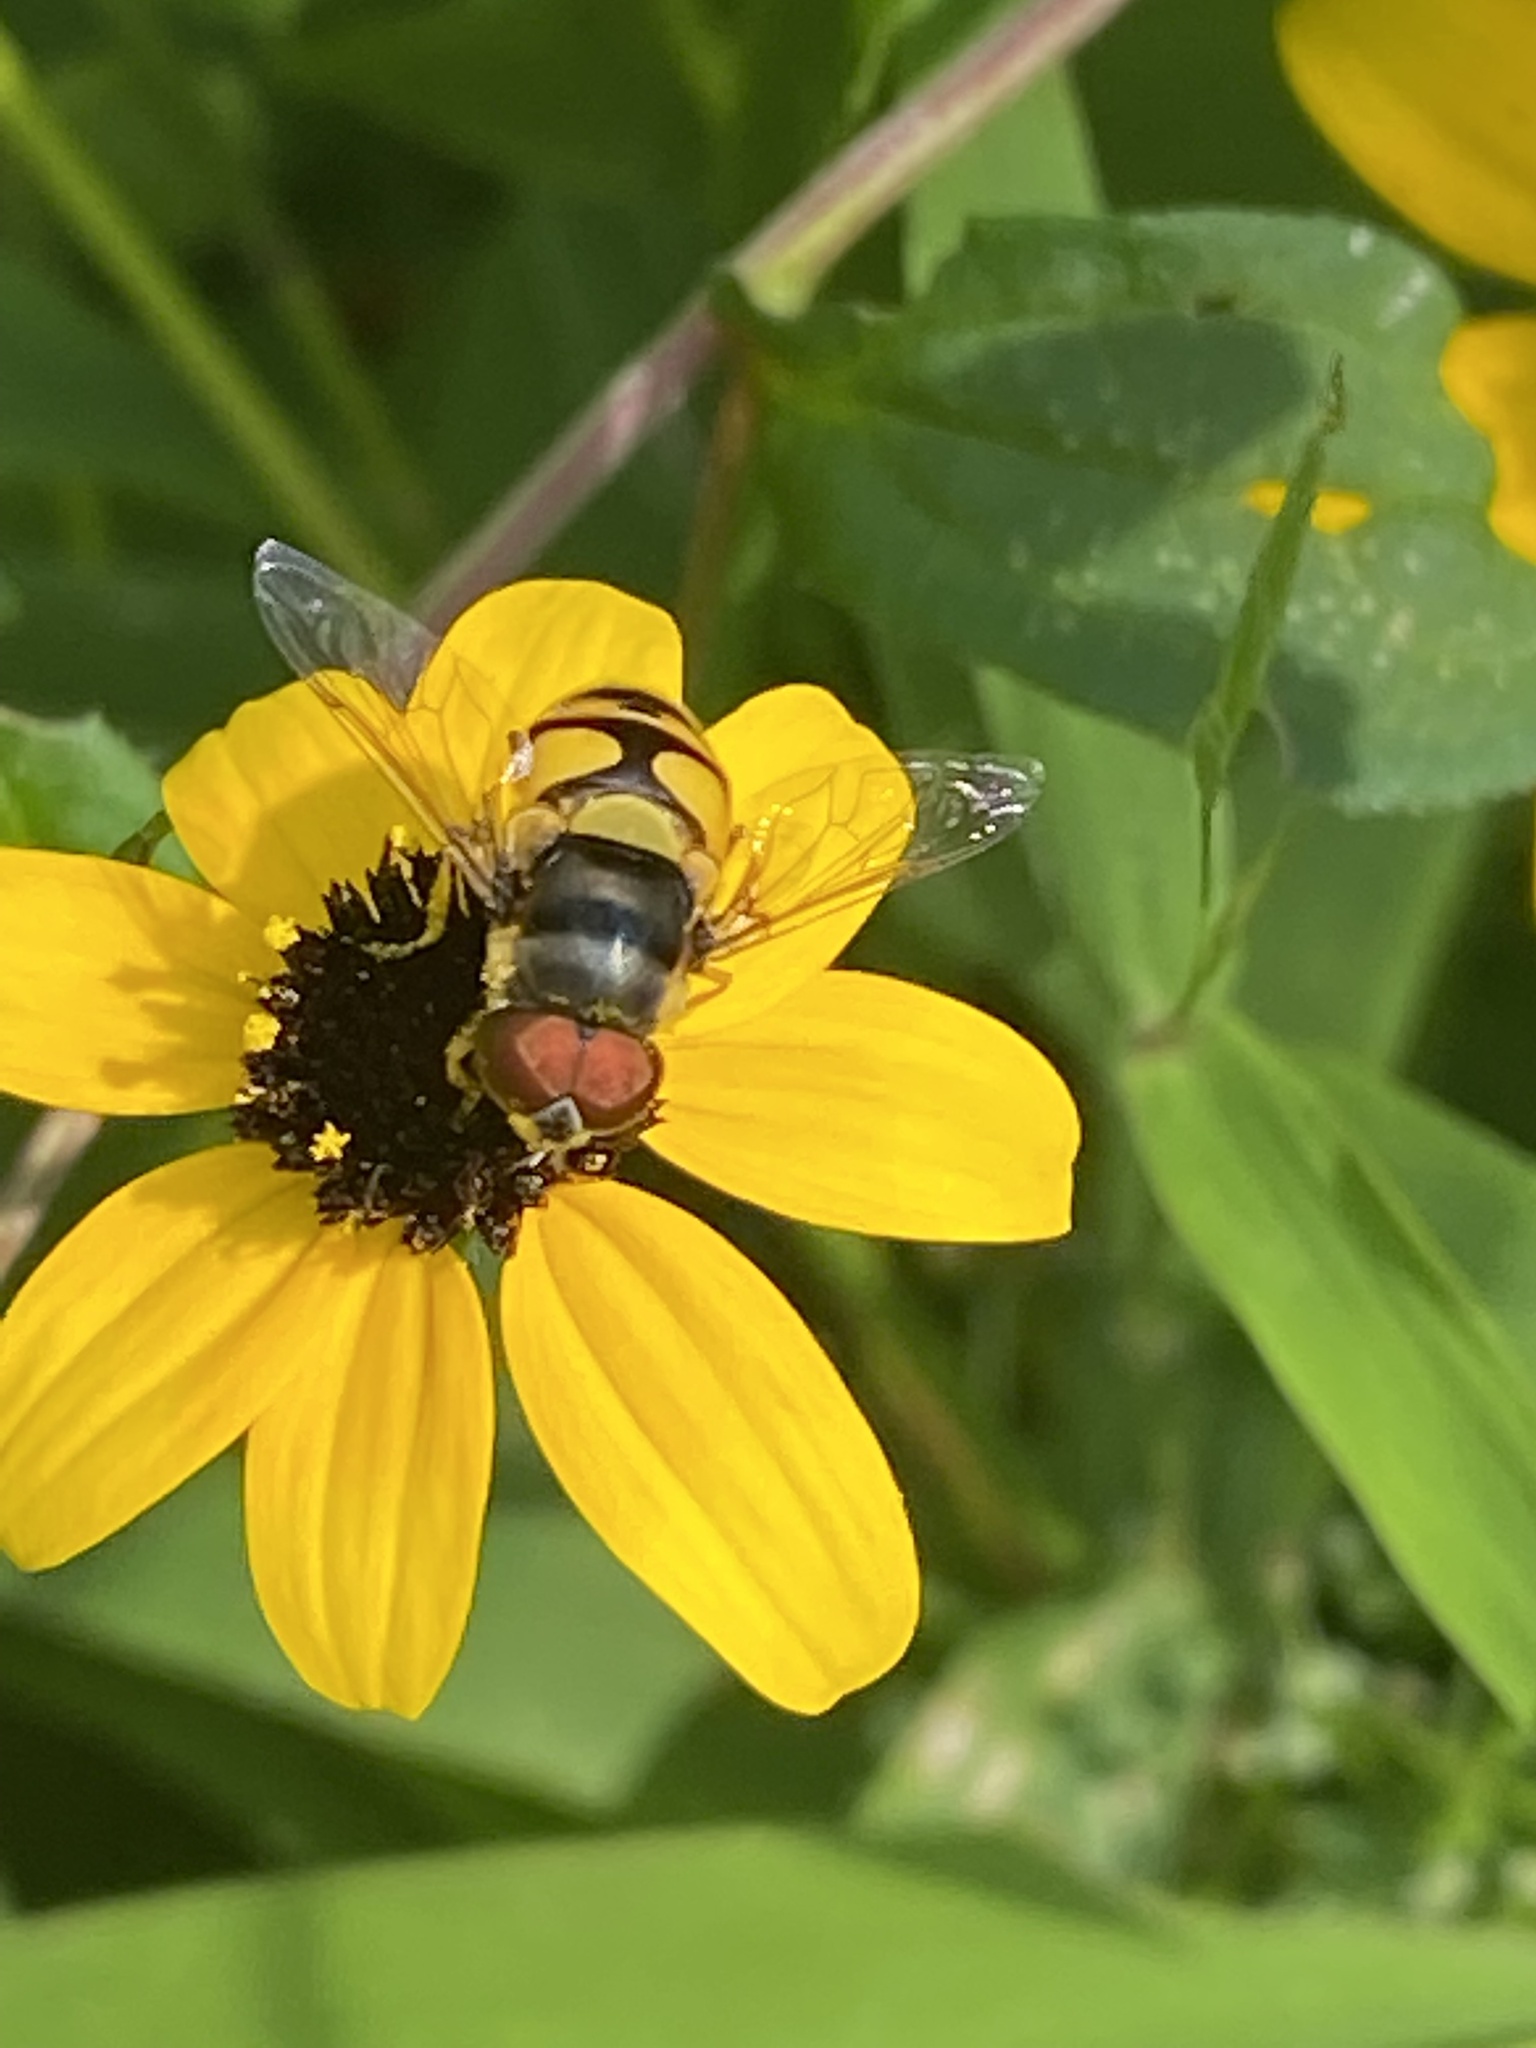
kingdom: Animalia
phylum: Arthropoda
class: Insecta
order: Diptera
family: Syrphidae
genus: Eristalis
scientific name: Eristalis transversa
